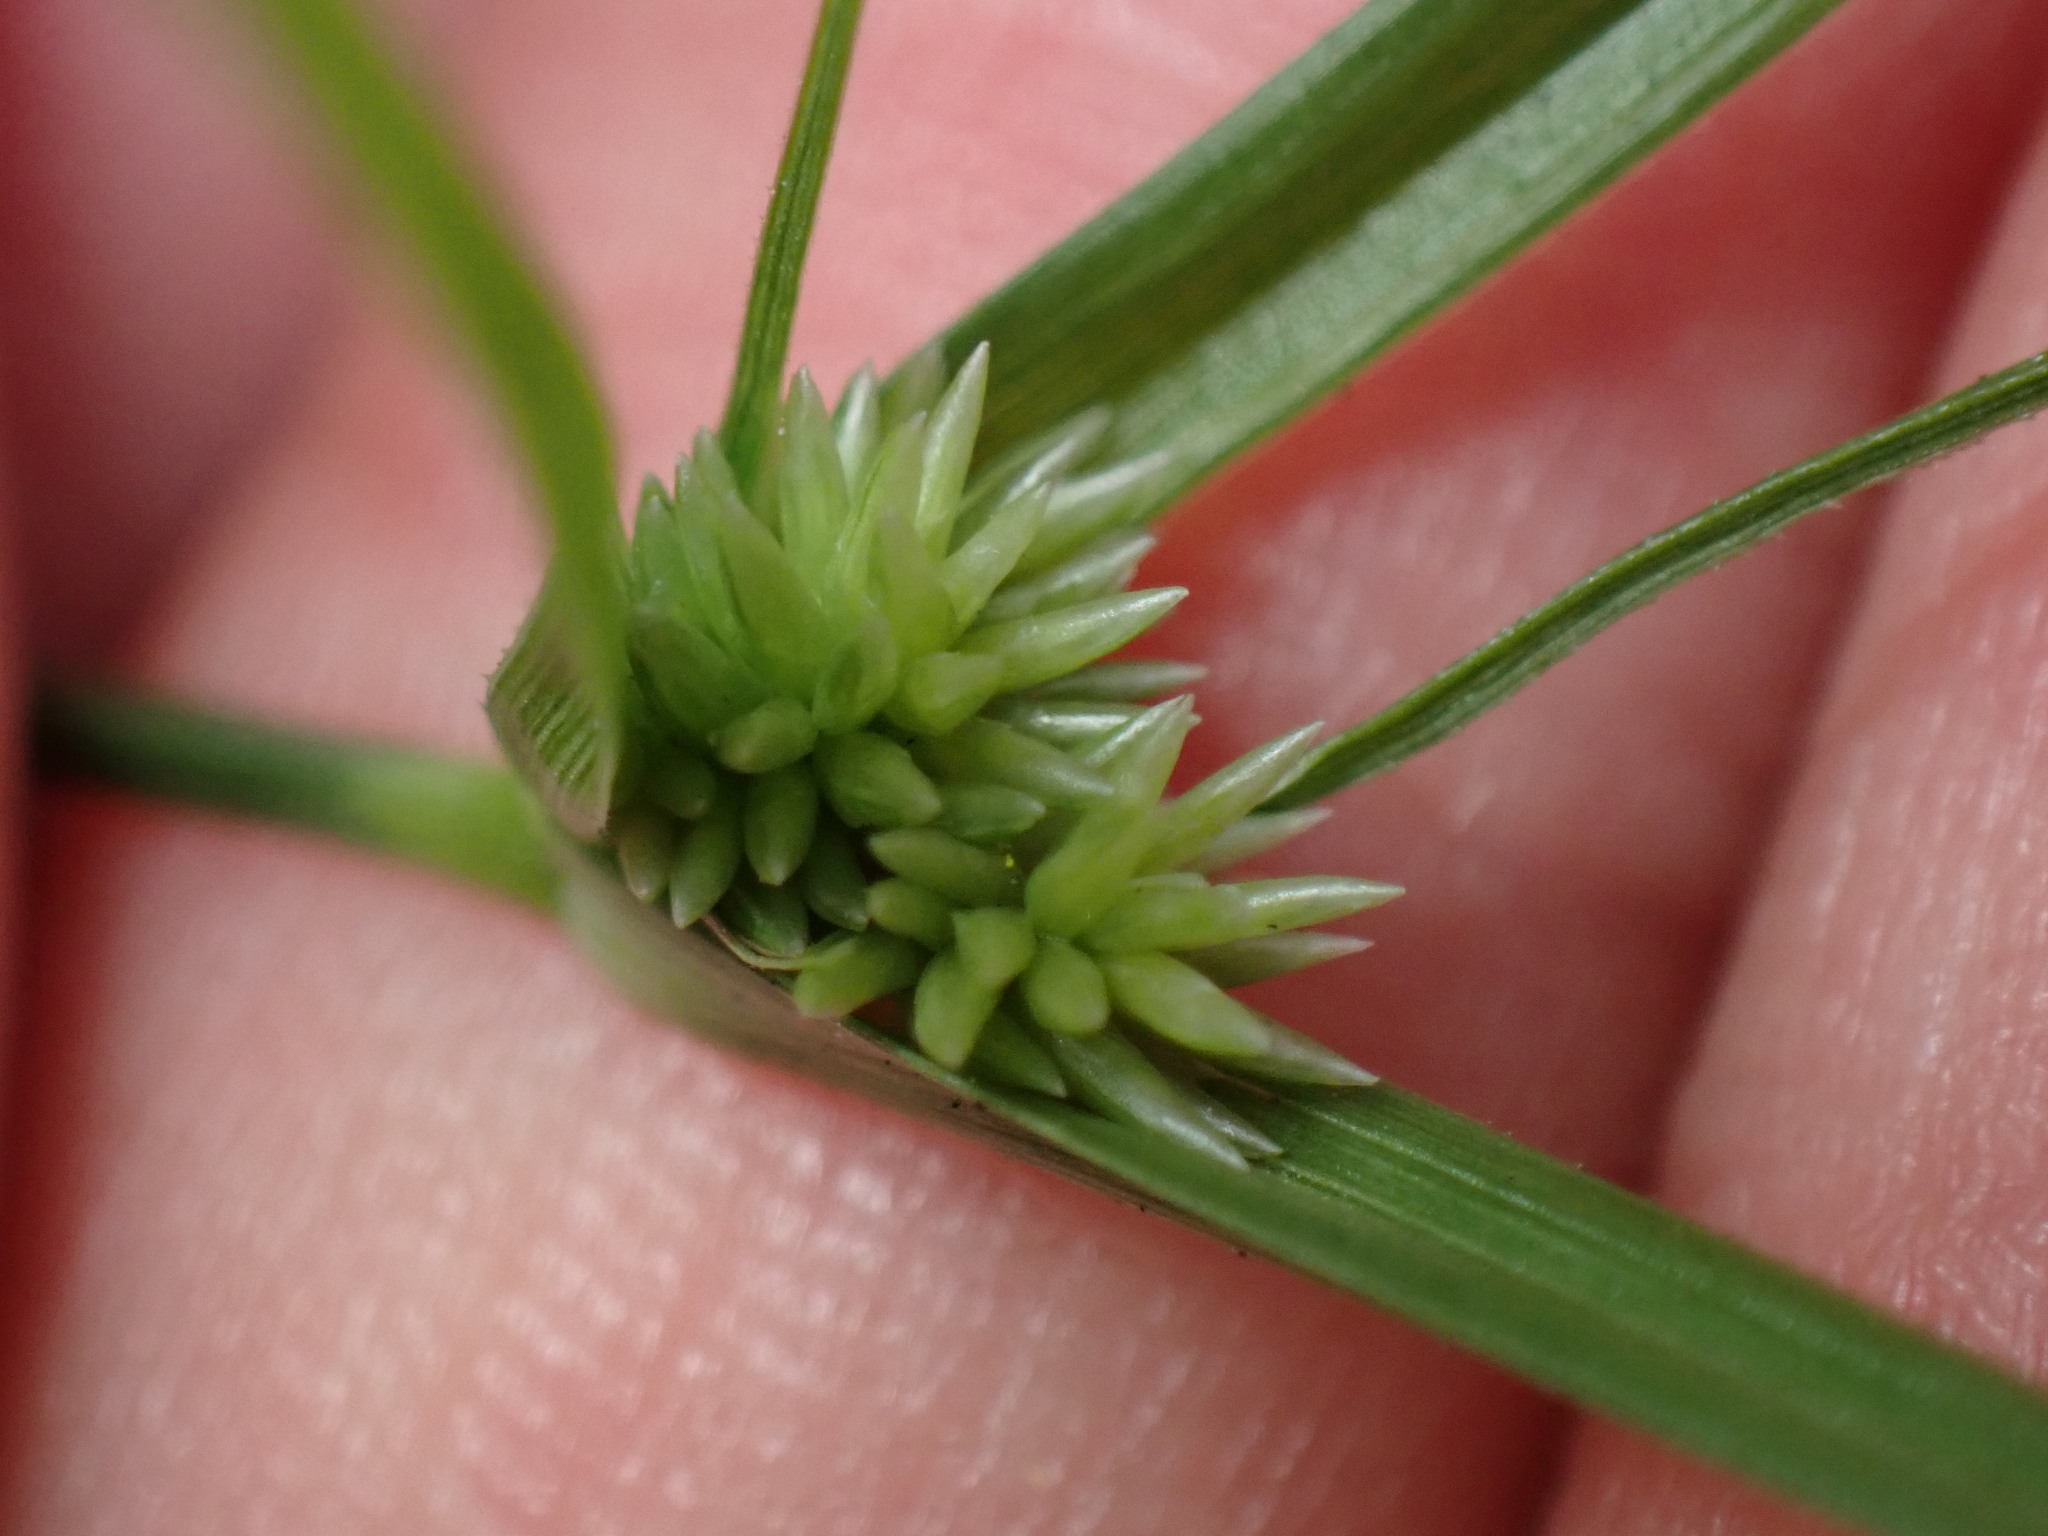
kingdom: Plantae
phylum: Tracheophyta
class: Liliopsida
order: Poales
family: Cyperaceae
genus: Cyperus
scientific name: Cyperus lupulinus
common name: Great plains flatsedge
